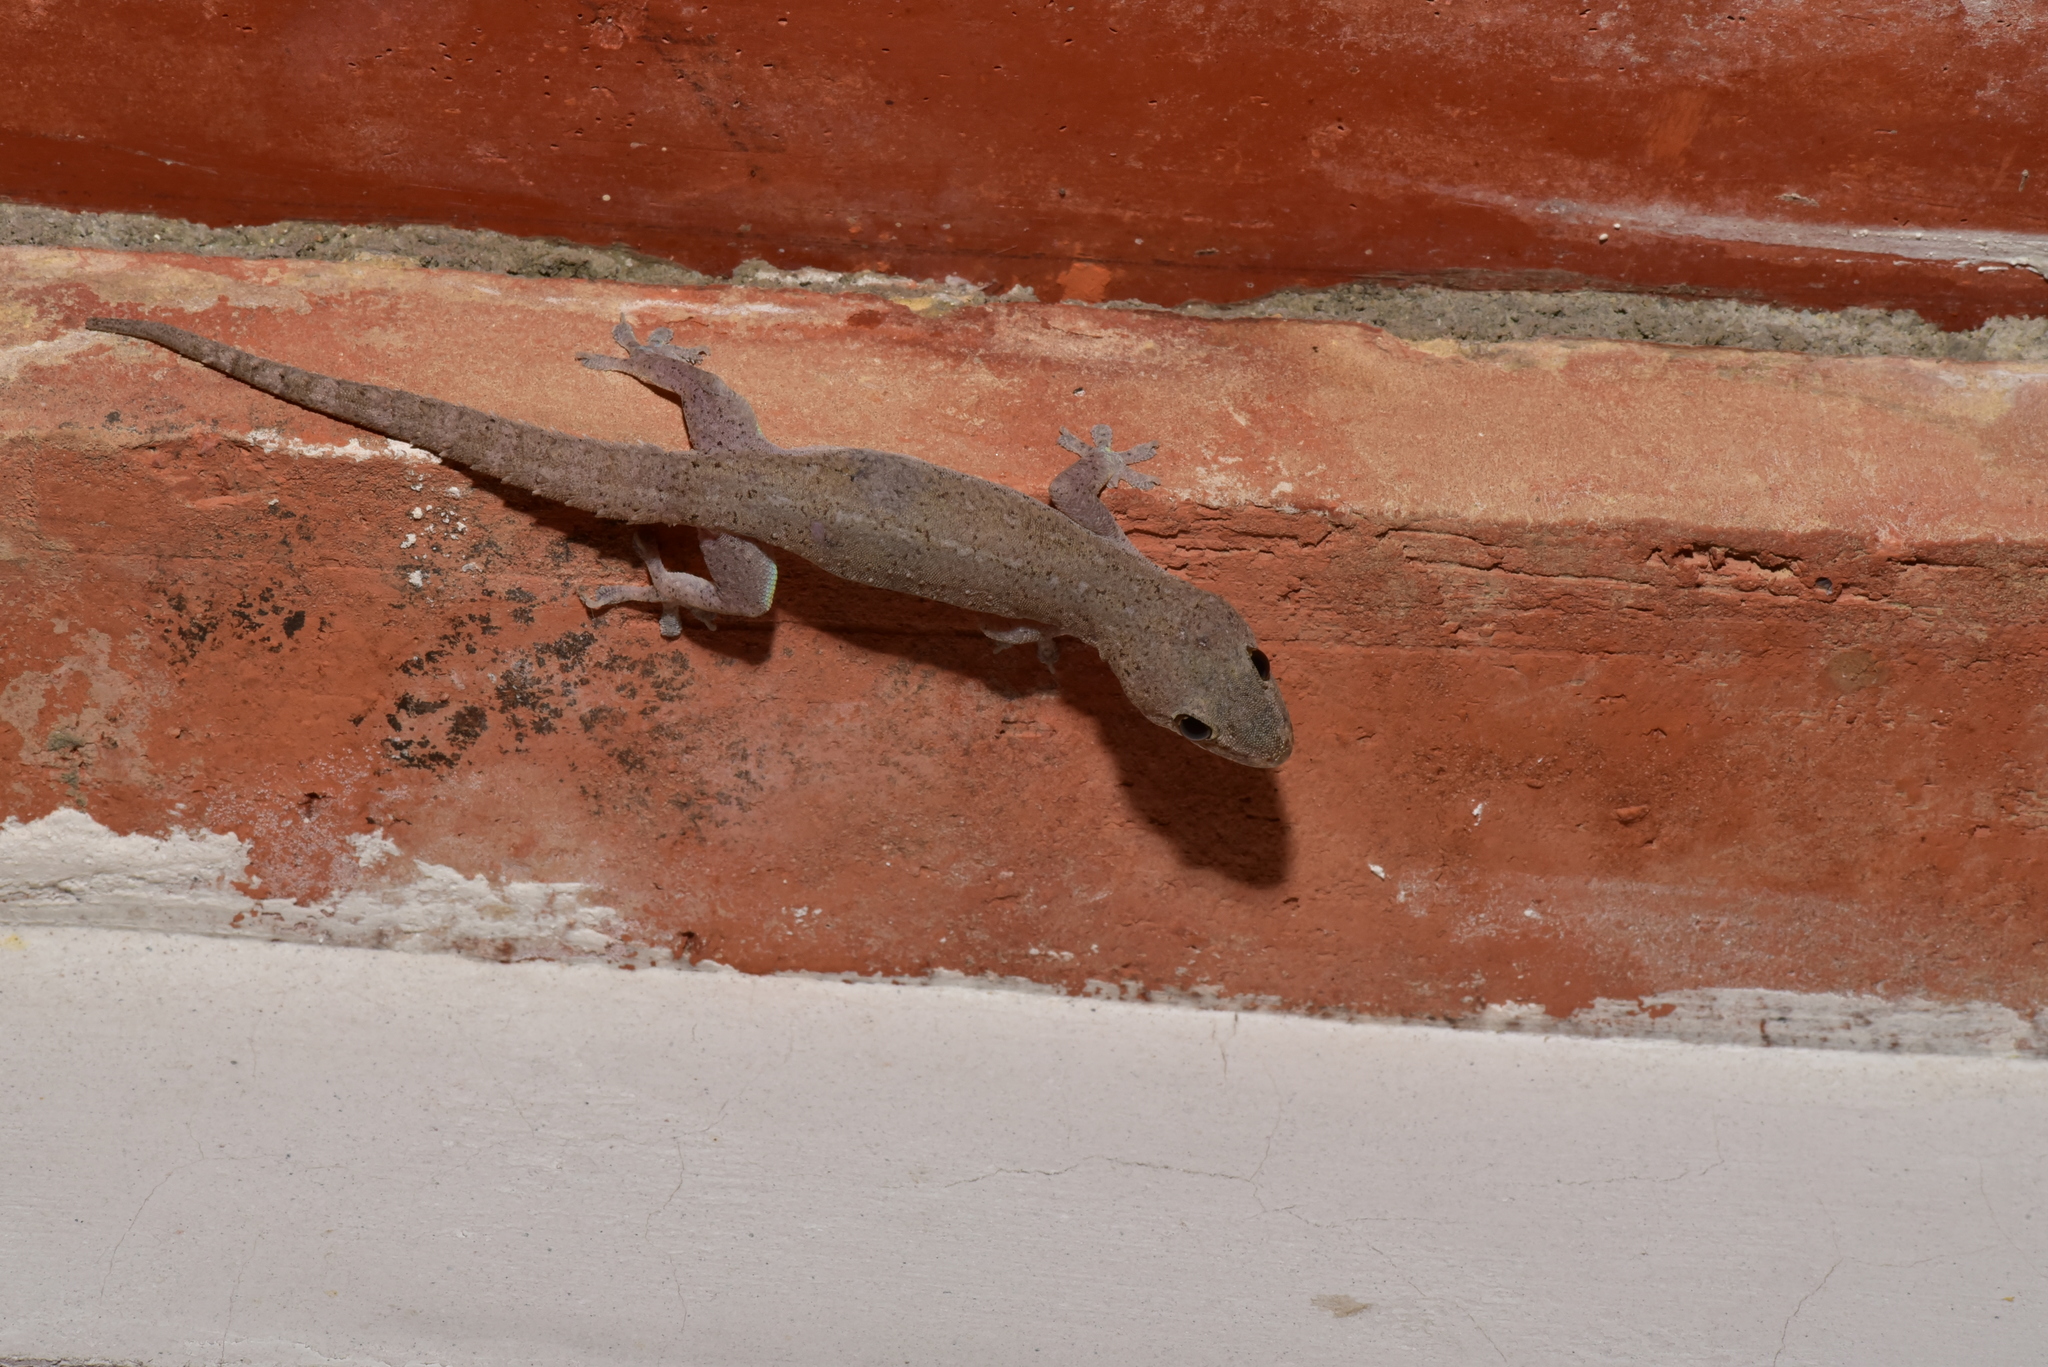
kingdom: Animalia
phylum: Chordata
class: Squamata
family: Gekkonidae
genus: Hemidactylus
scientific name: Hemidactylus frenatus
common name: Common house gecko
